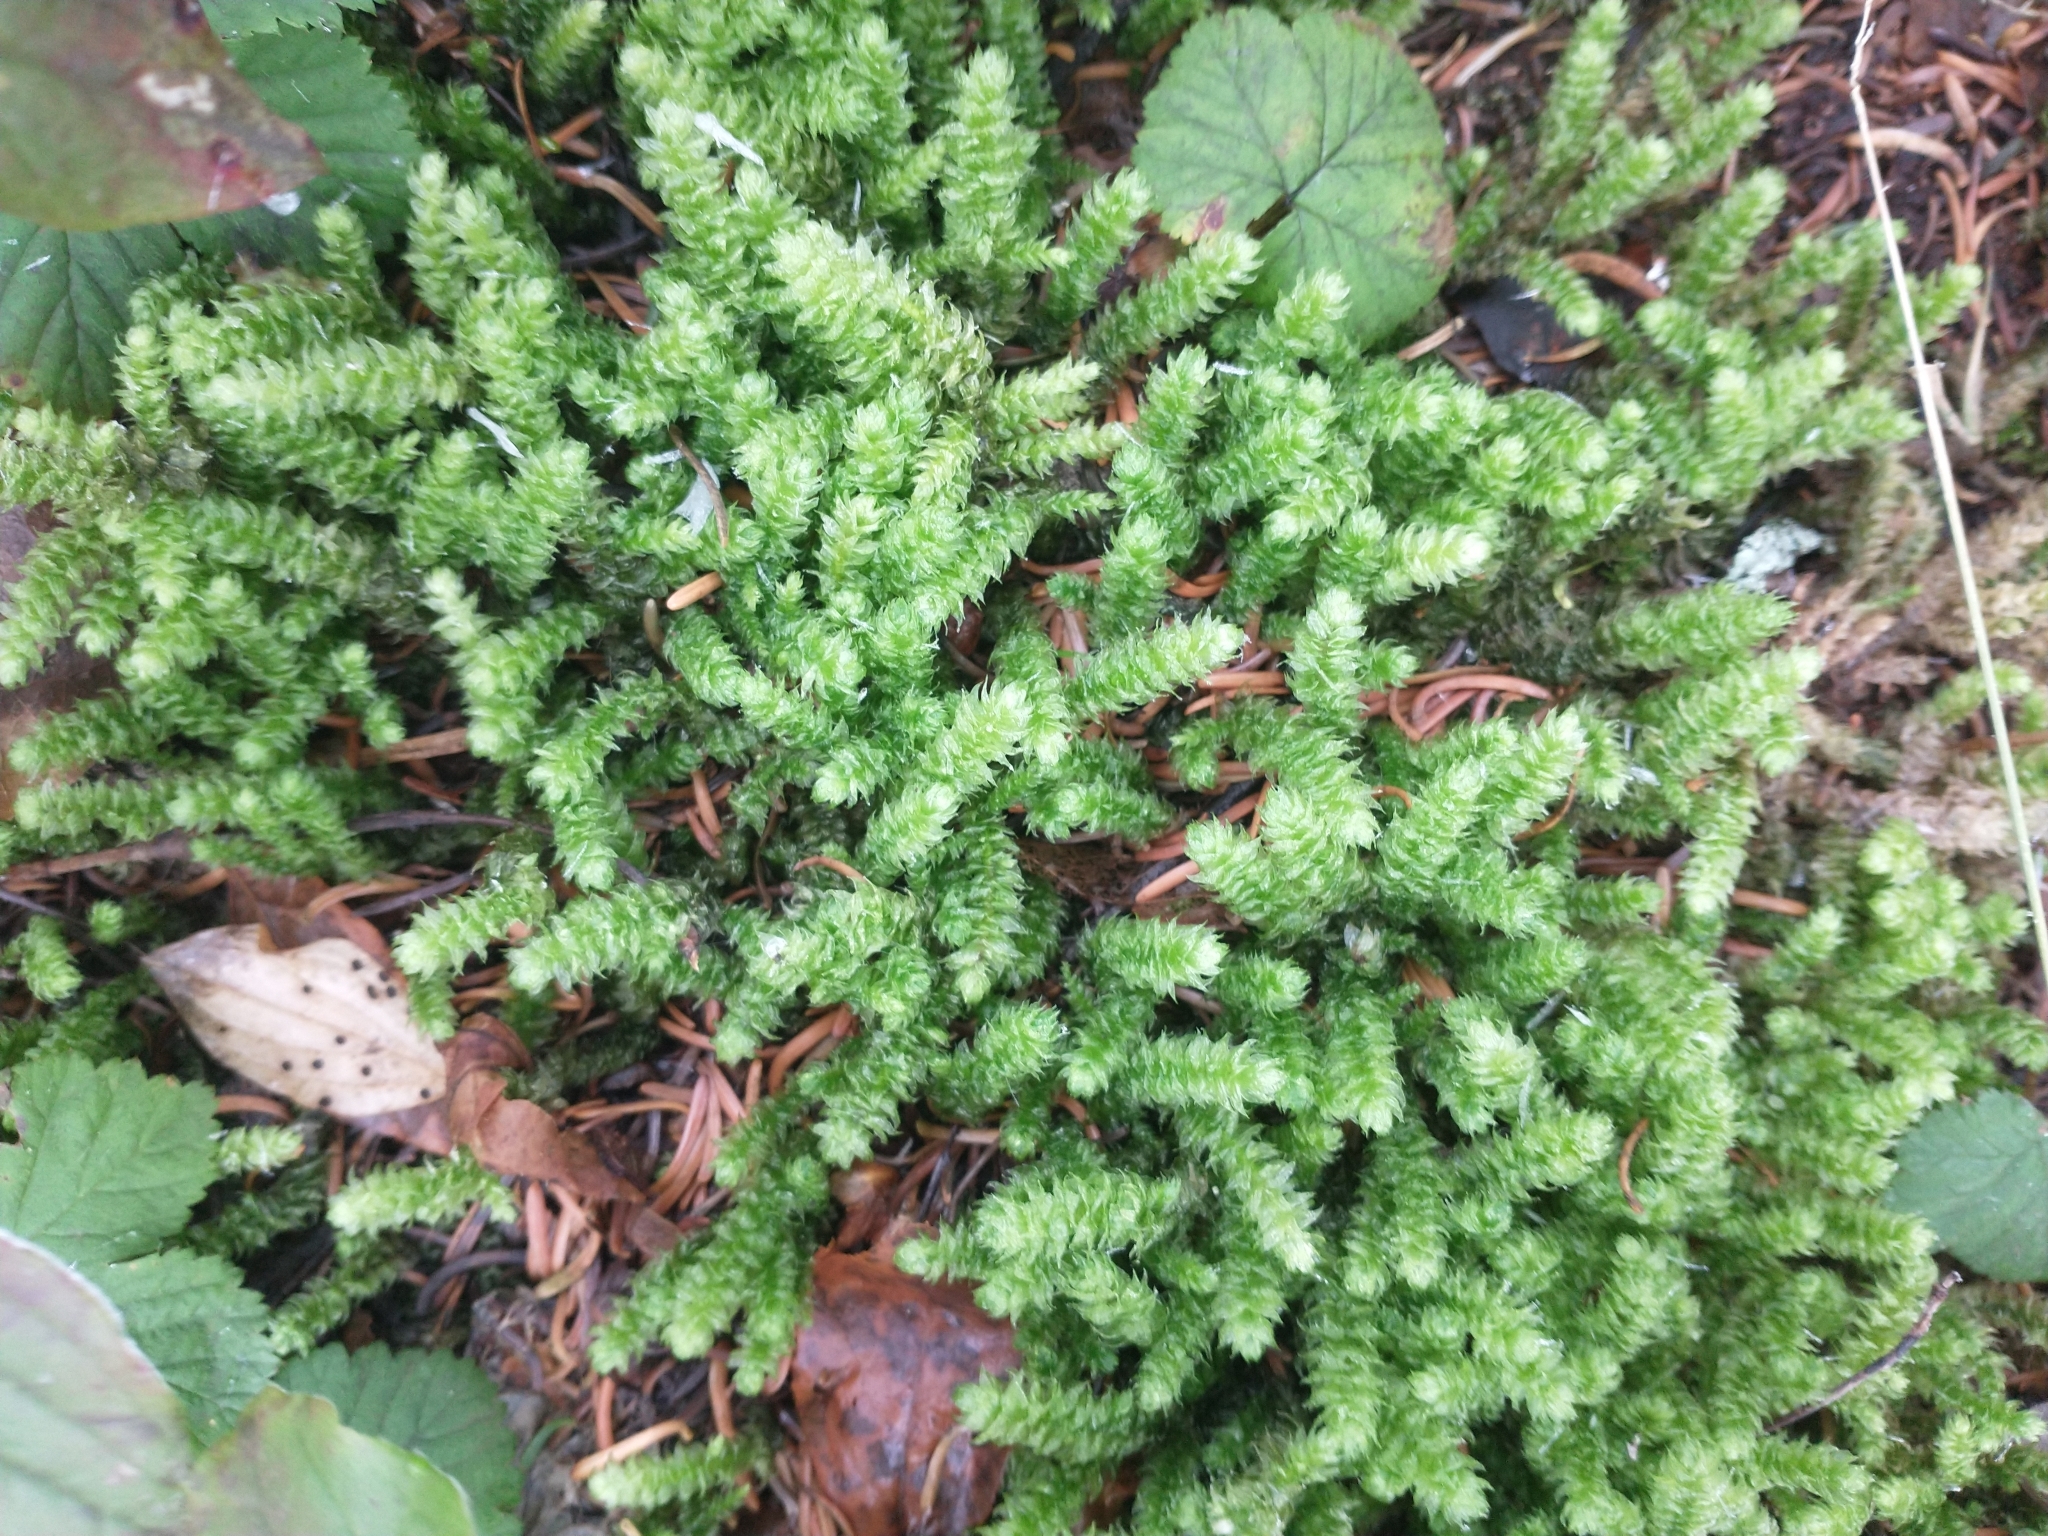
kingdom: Plantae
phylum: Bryophyta
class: Bryopsida
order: Hypnales
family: Hylocomiaceae
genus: Rhytidiopsis
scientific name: Rhytidiopsis robusta
